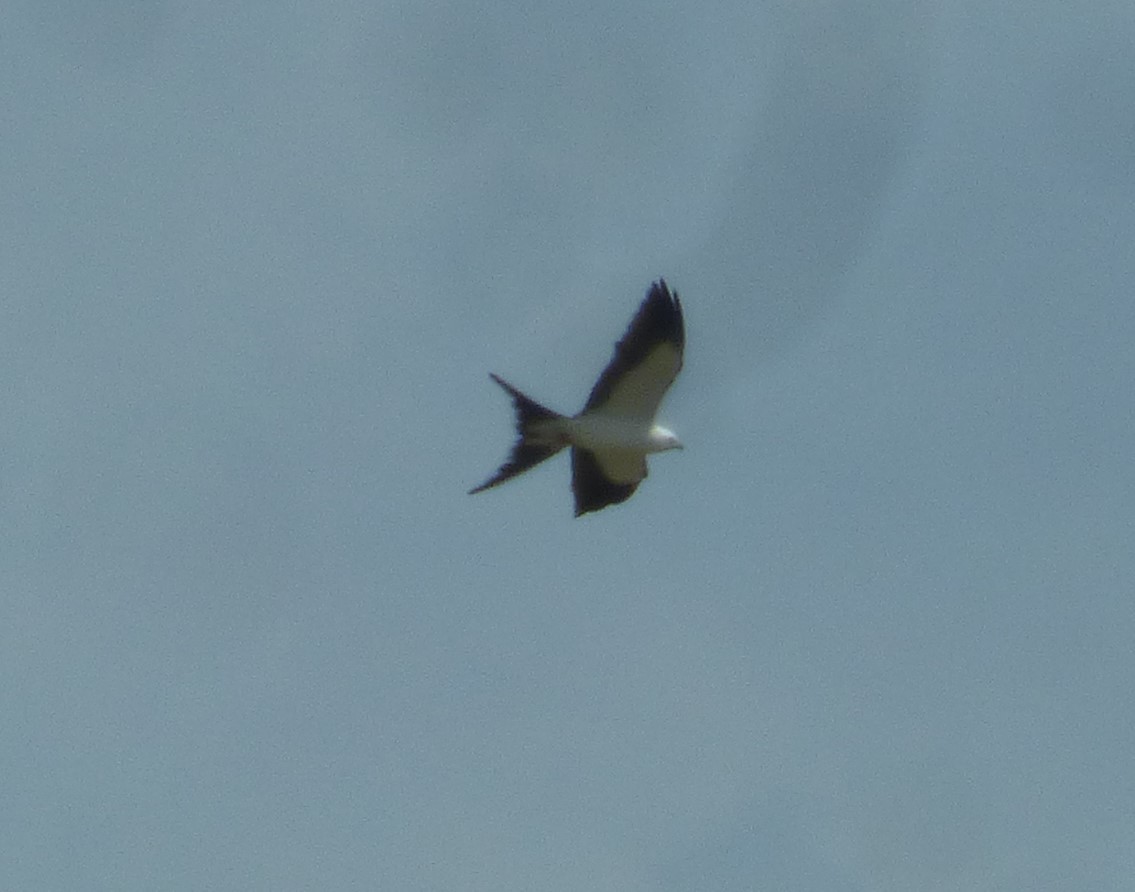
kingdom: Animalia
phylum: Chordata
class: Aves
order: Accipitriformes
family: Accipitridae
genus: Elanoides
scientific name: Elanoides forficatus
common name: Swallow-tailed kite
